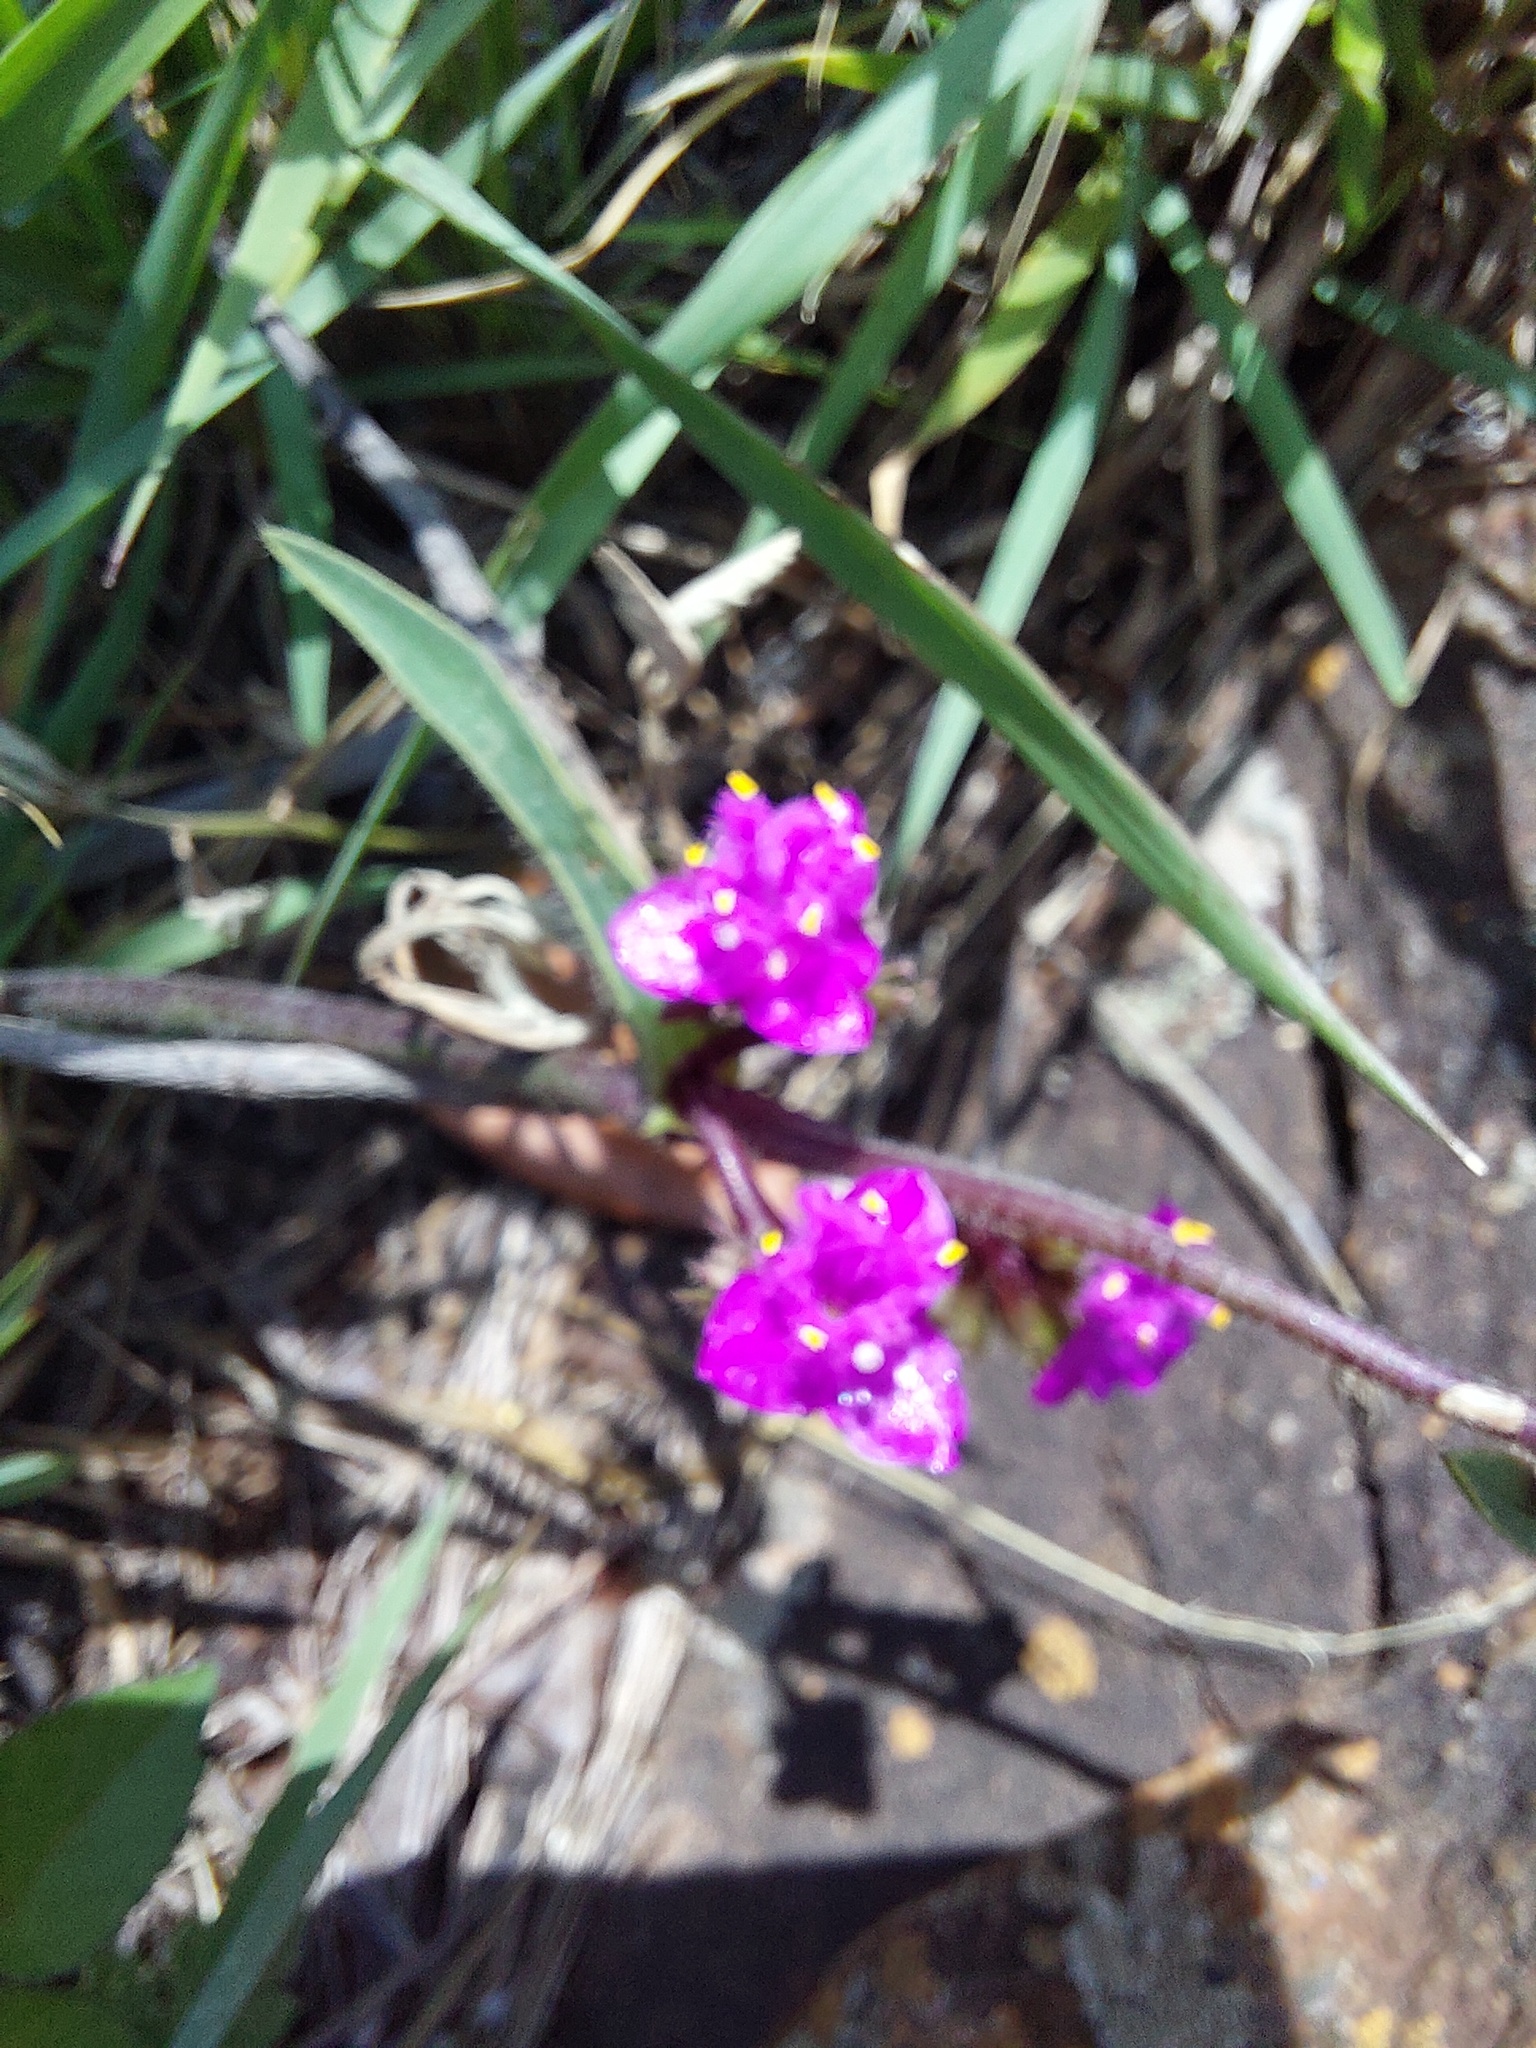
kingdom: Plantae
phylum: Tracheophyta
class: Liliopsida
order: Commelinales
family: Commelinaceae
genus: Cyanotis
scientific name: Cyanotis speciosa
